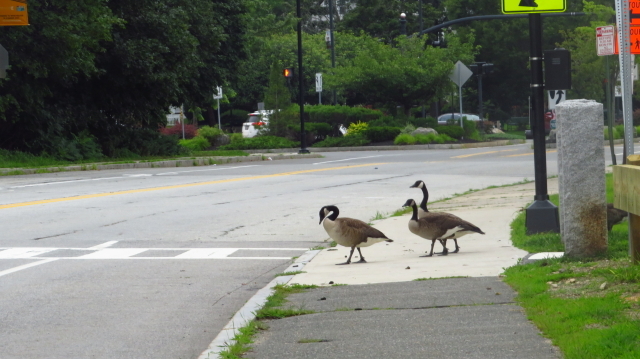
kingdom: Animalia
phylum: Chordata
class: Aves
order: Anseriformes
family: Anatidae
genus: Branta
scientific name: Branta canadensis
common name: Canada goose
